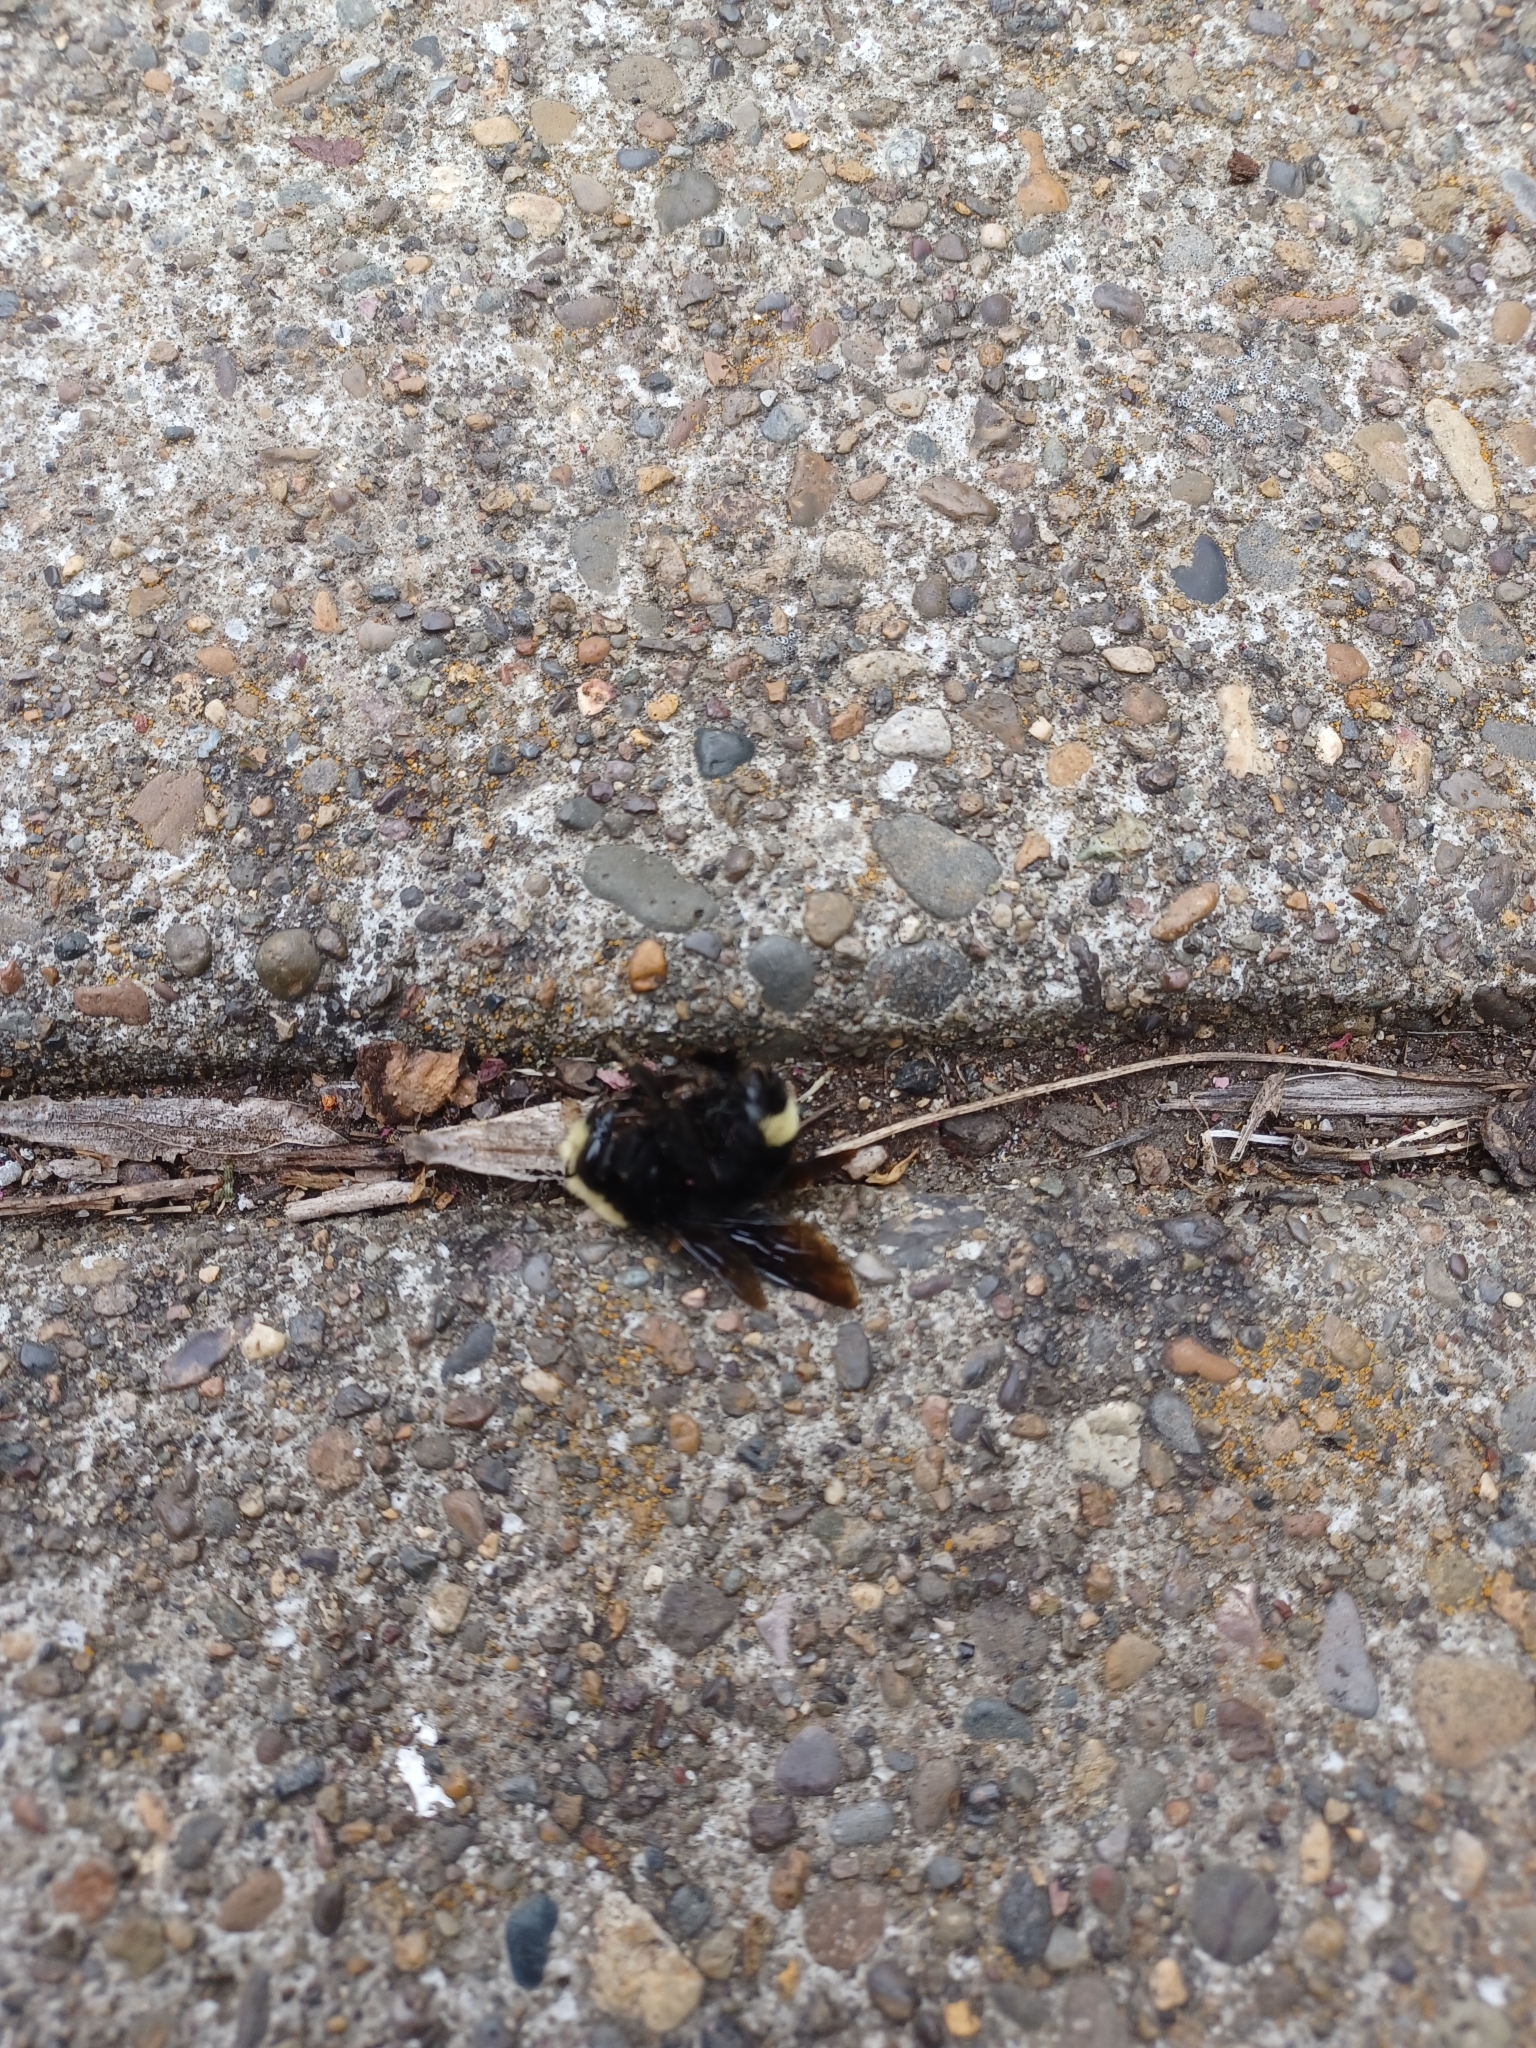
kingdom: Animalia
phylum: Arthropoda
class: Insecta
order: Hymenoptera
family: Apidae
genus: Bombus
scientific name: Bombus vosnesenskii
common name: Vosnesensky bumble bee
